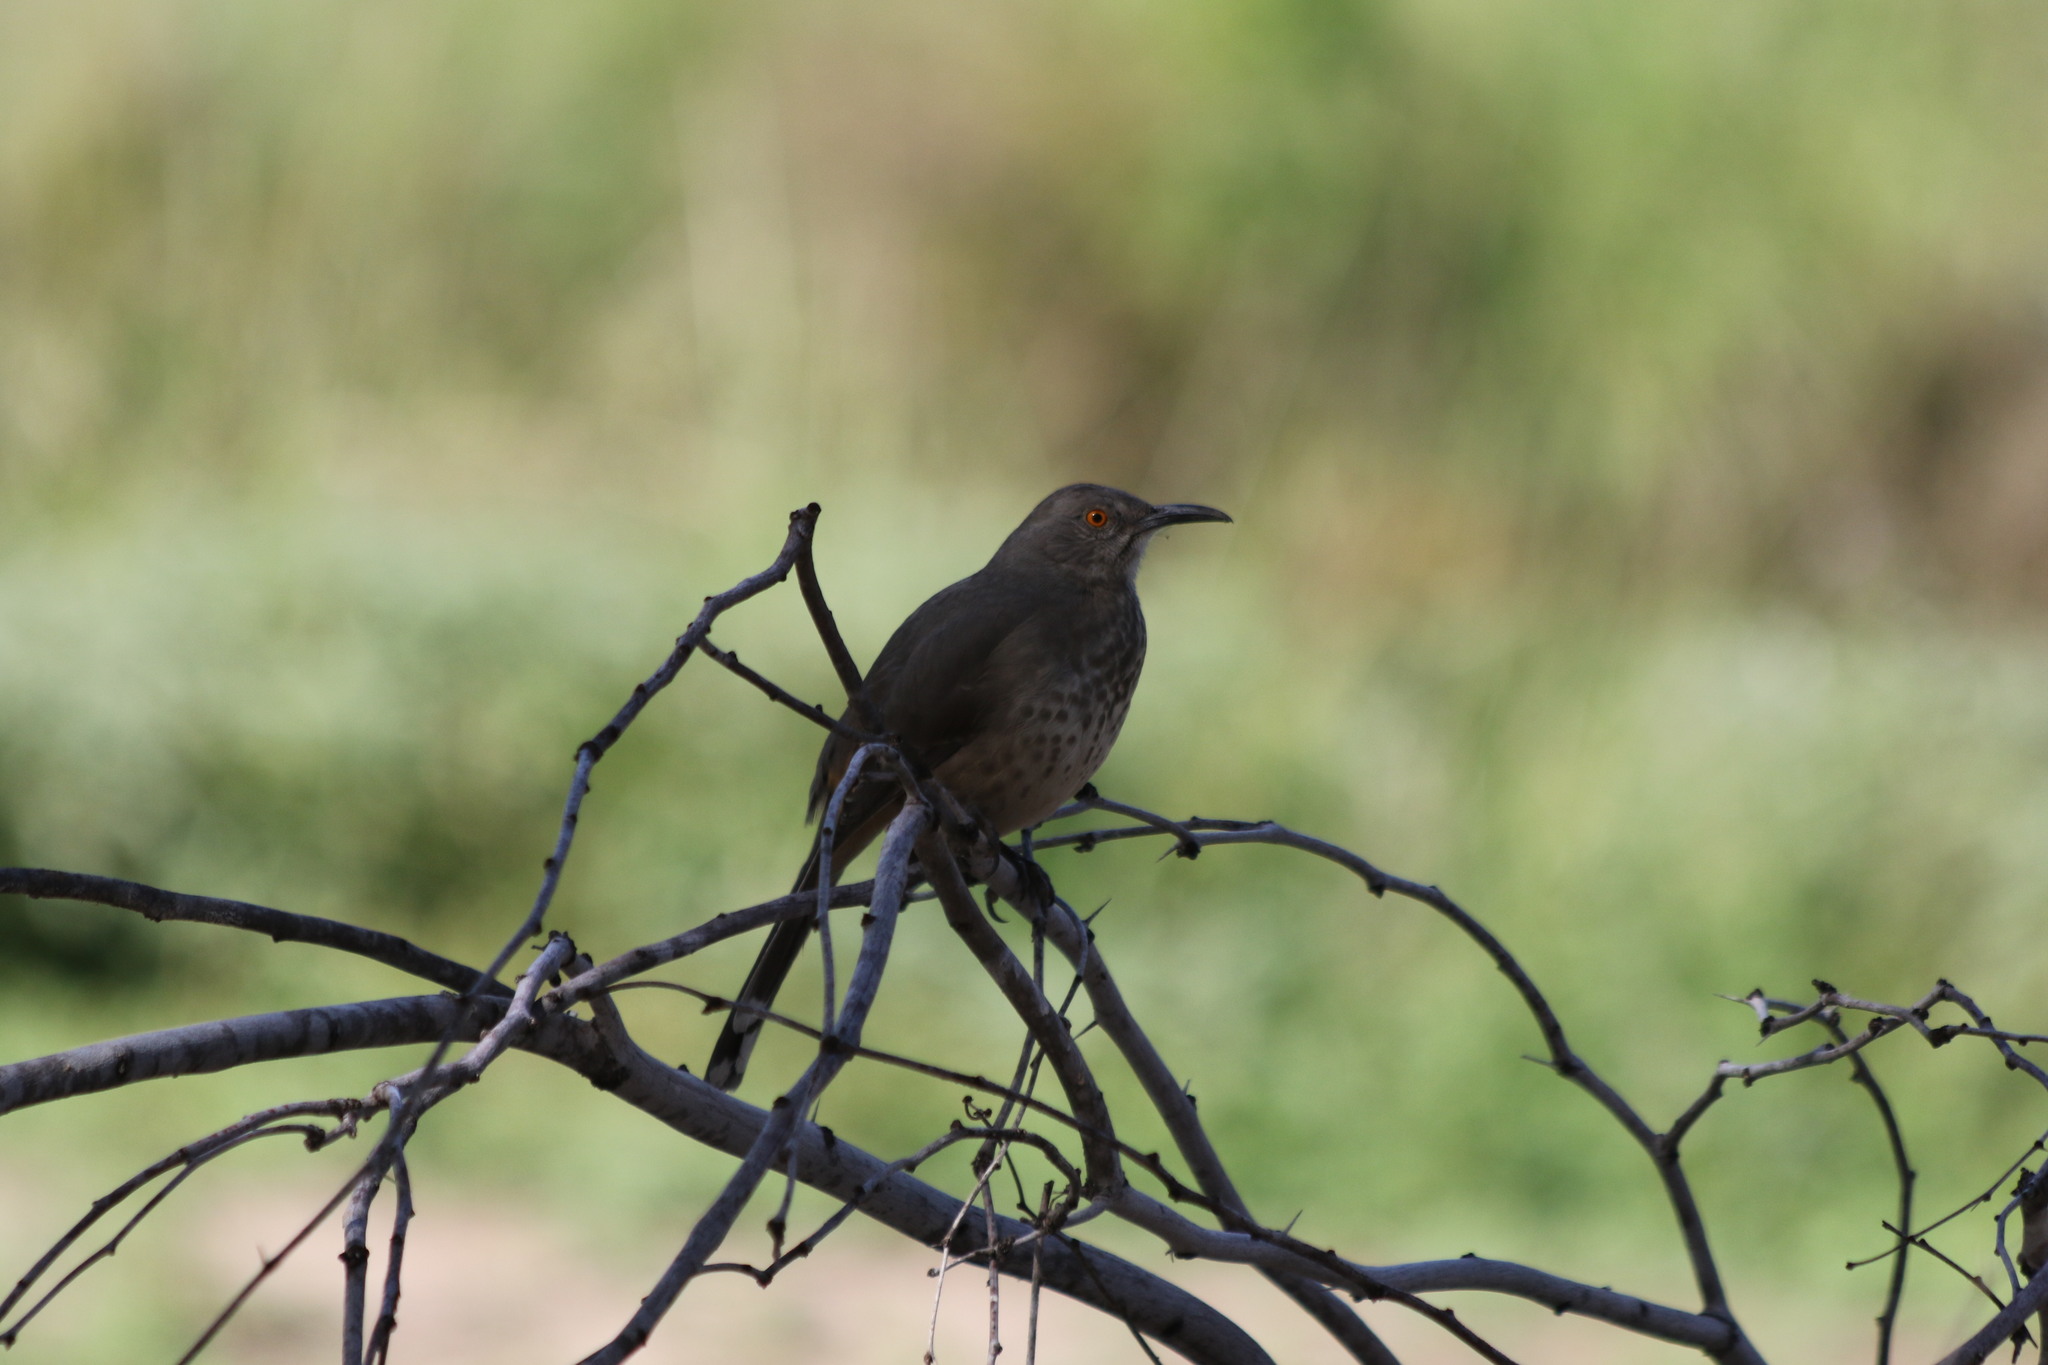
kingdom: Animalia
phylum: Chordata
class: Aves
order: Passeriformes
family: Mimidae
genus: Toxostoma
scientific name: Toxostoma curvirostre
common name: Curve-billed thrasher
